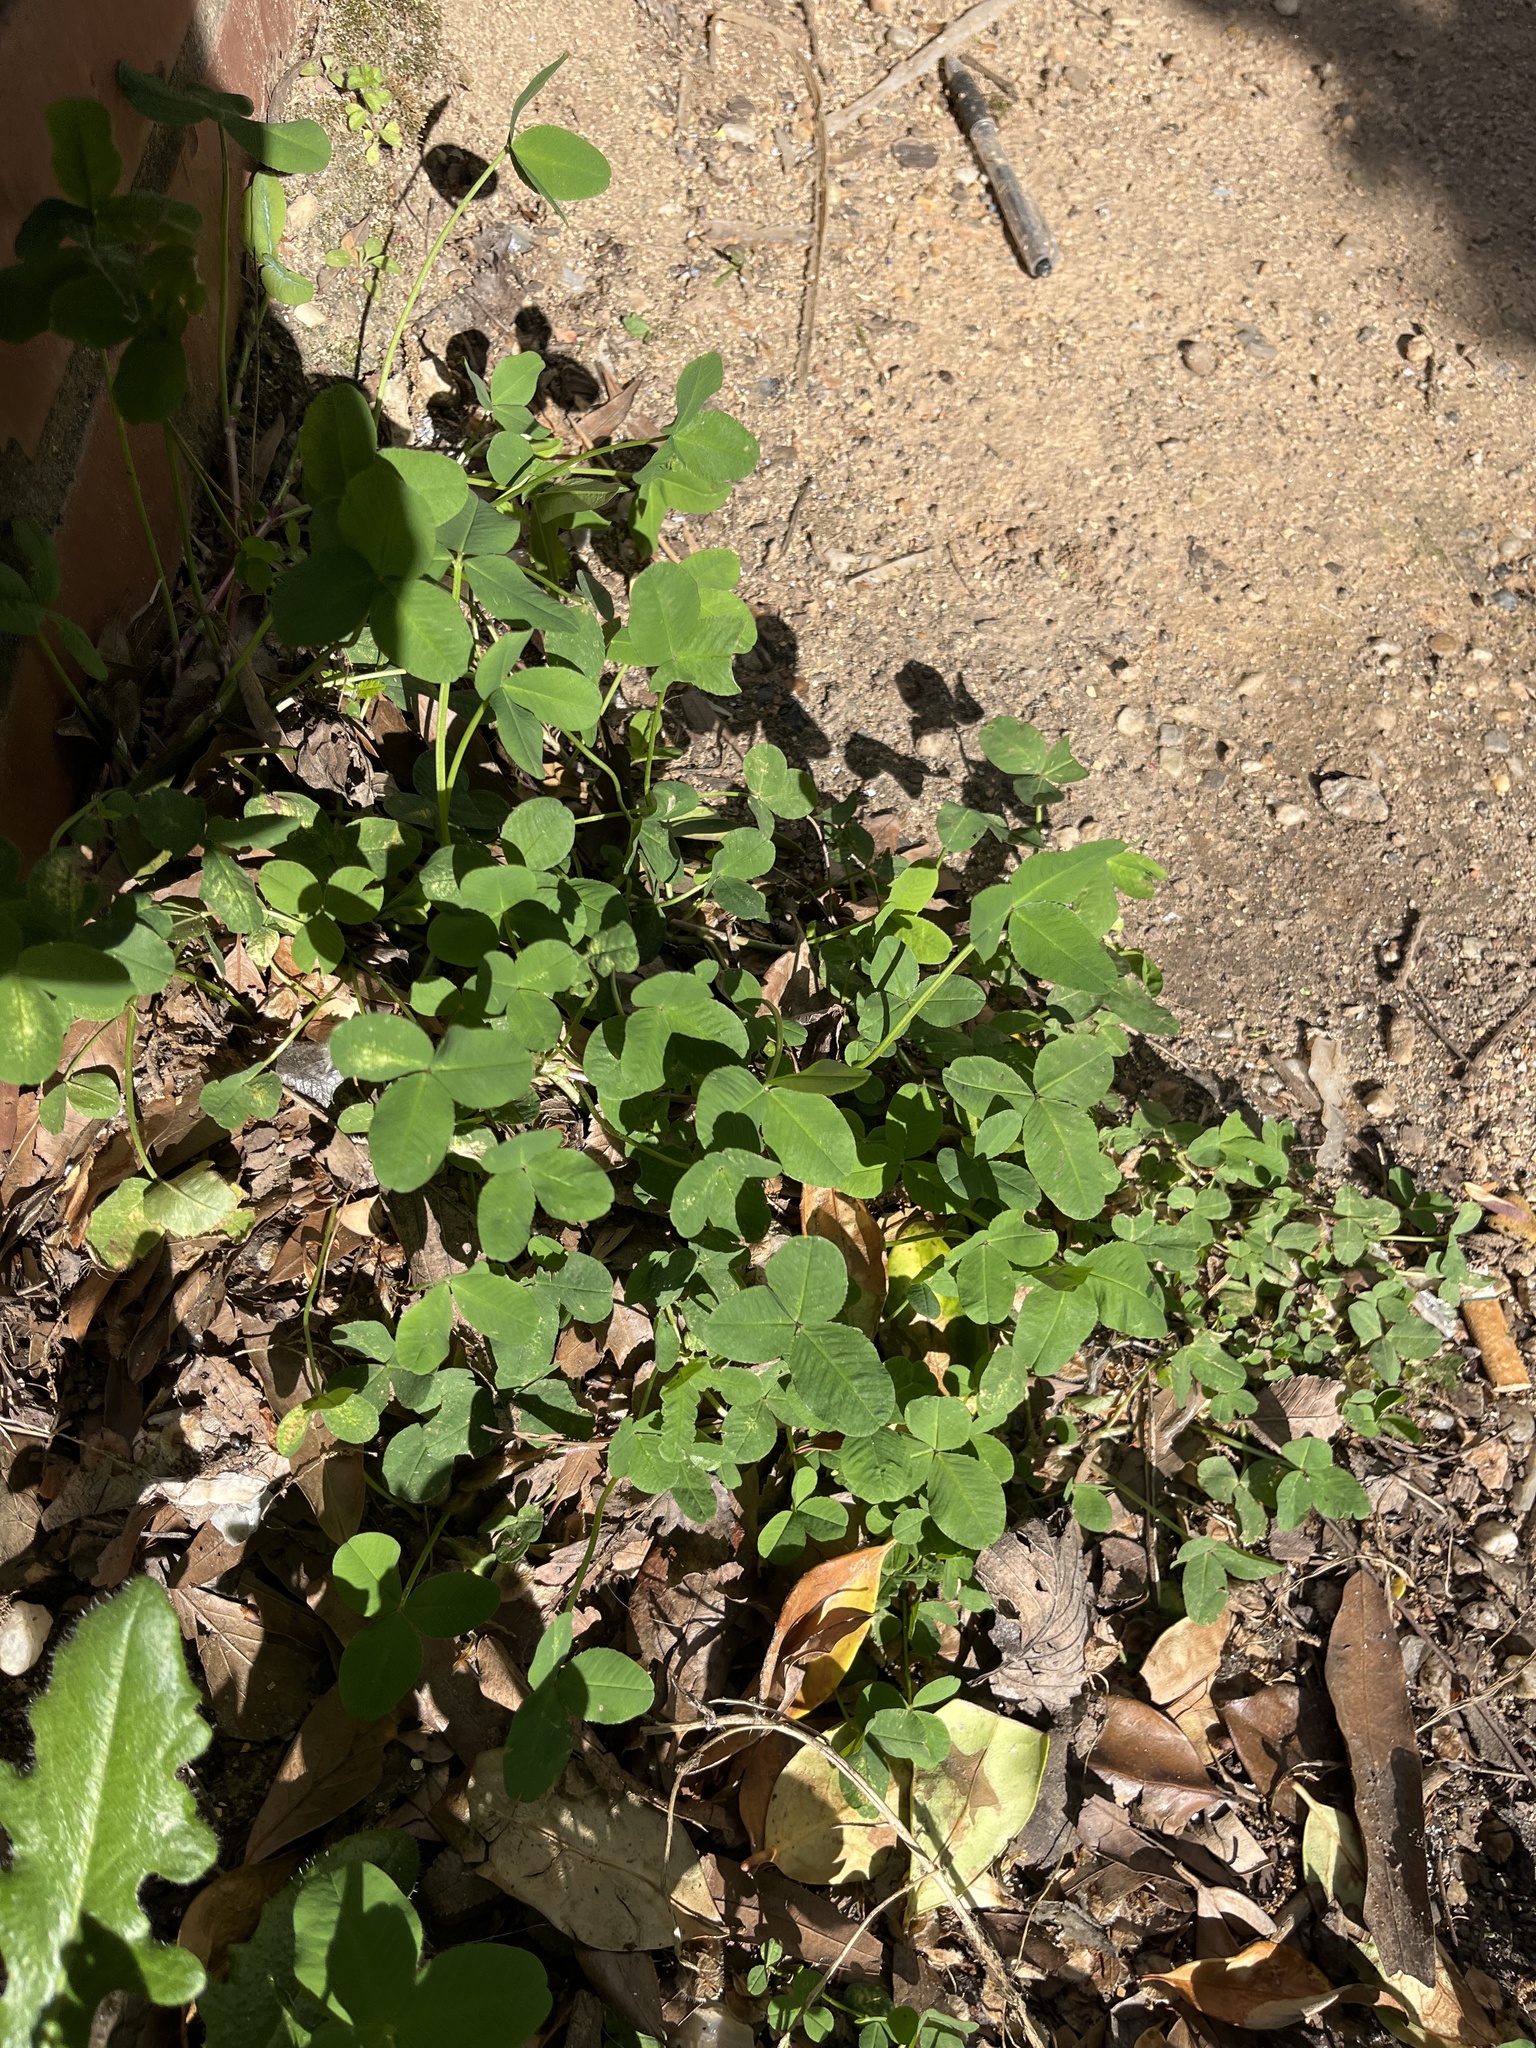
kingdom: Plantae
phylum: Tracheophyta
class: Magnoliopsida
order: Fabales
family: Fabaceae
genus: Trifolium
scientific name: Trifolium repens
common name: White clover
